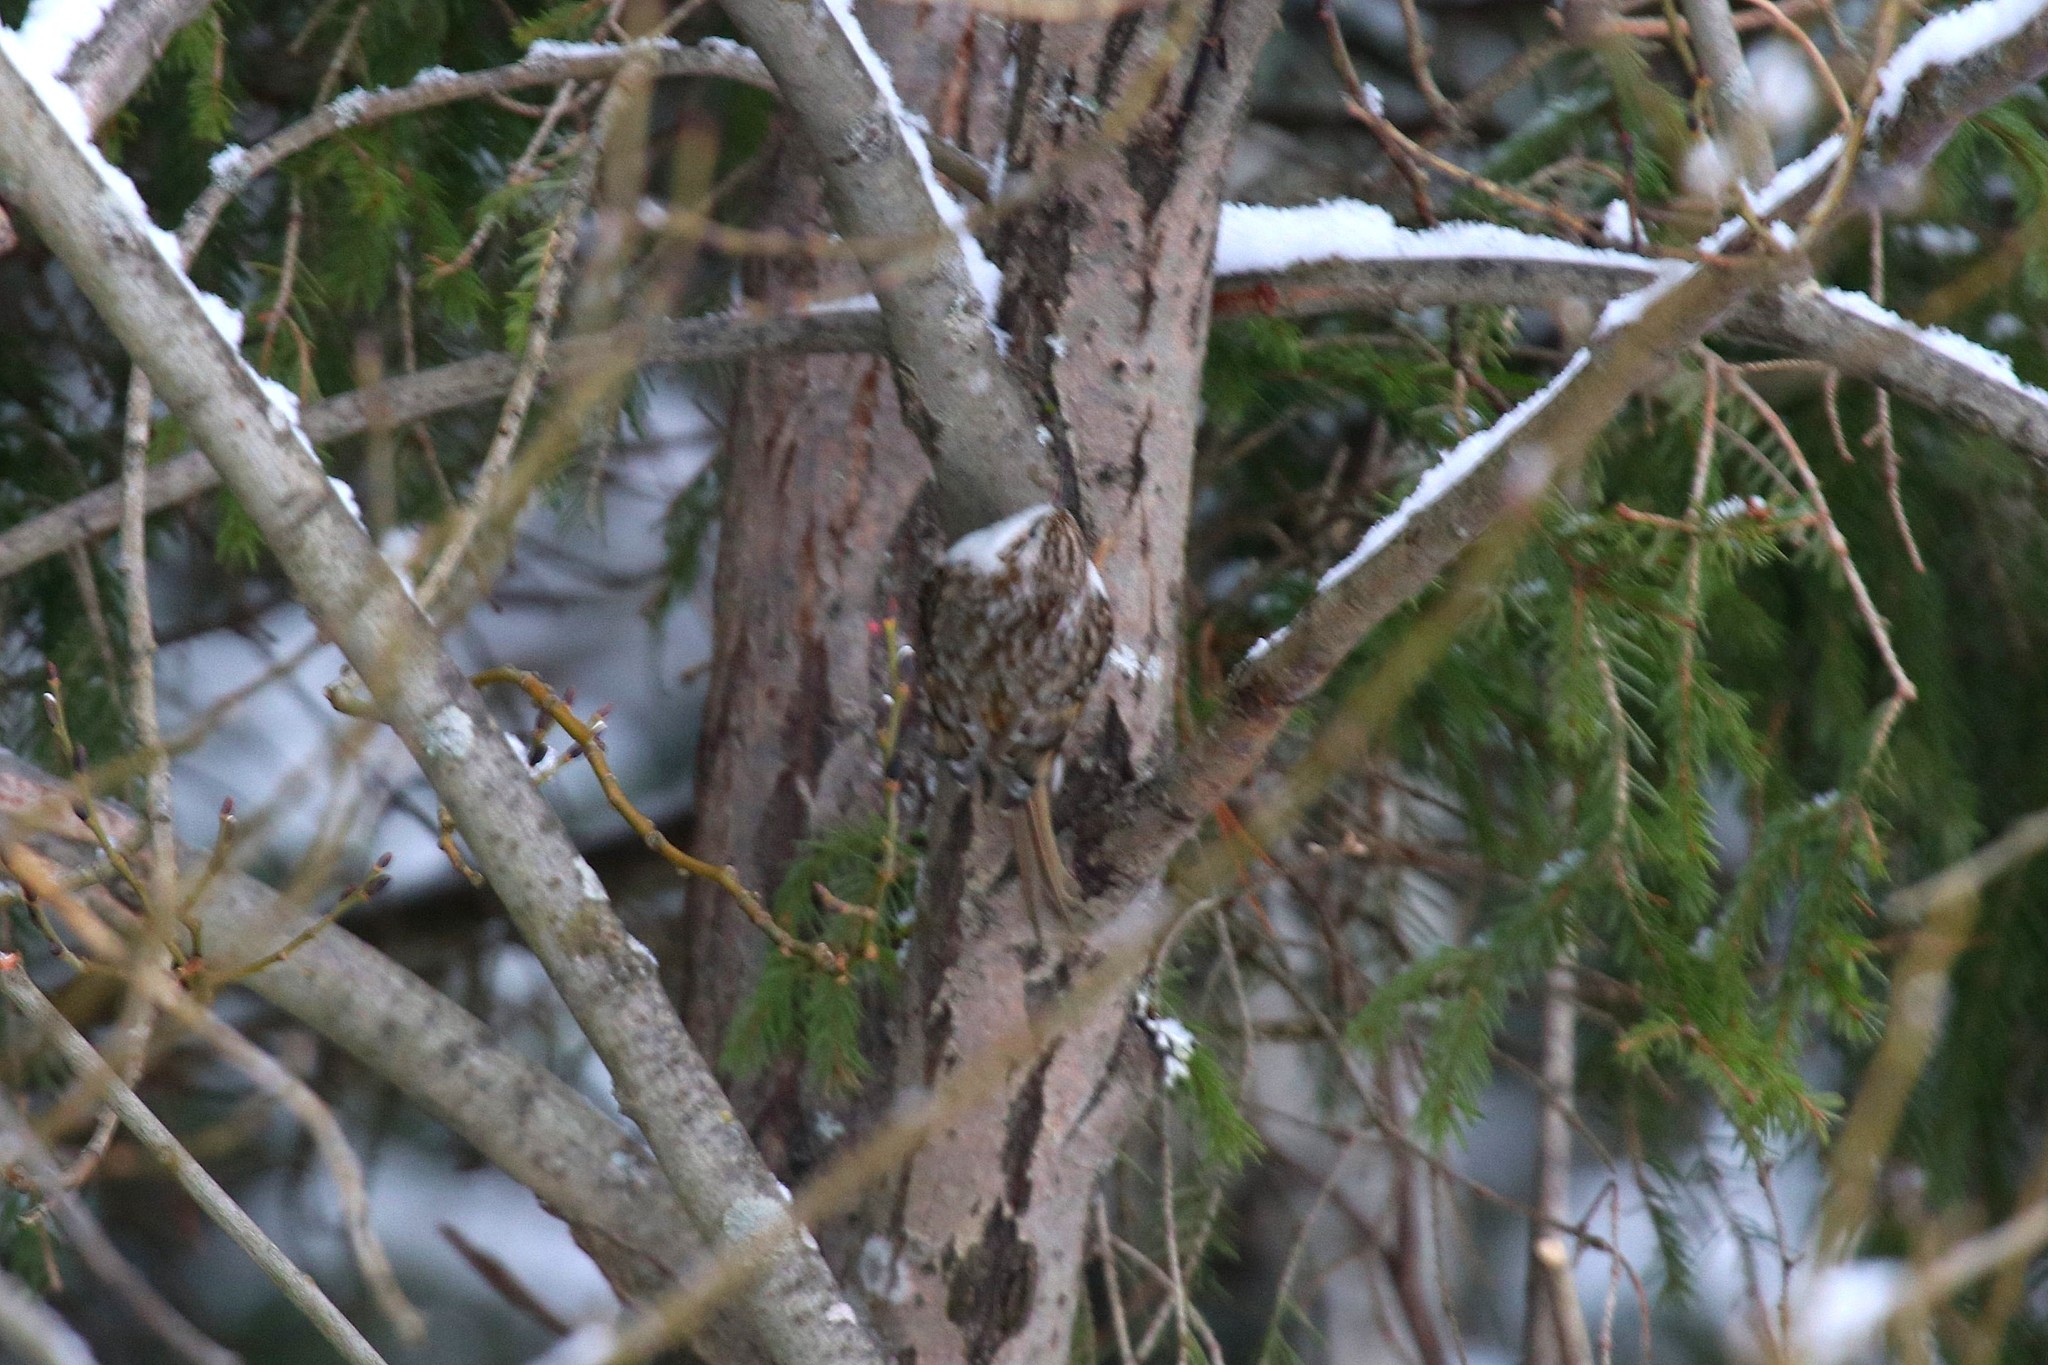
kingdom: Animalia
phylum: Chordata
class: Aves
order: Passeriformes
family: Certhiidae
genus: Certhia
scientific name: Certhia familiaris
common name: Eurasian treecreeper
